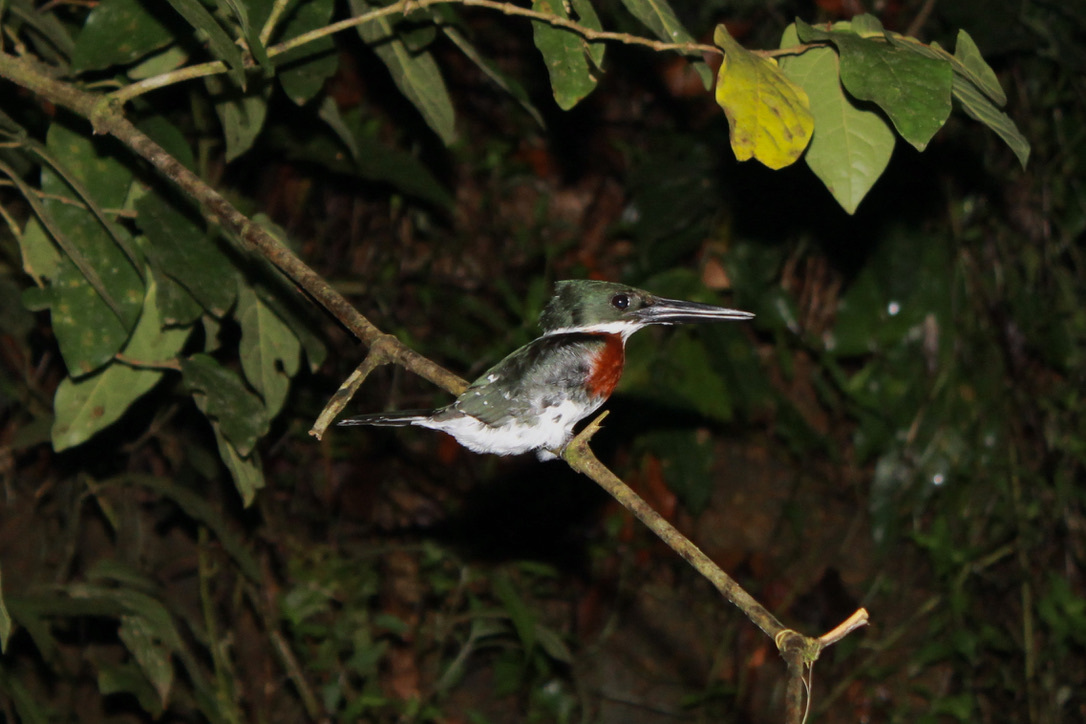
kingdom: Animalia
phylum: Chordata
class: Aves
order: Coraciiformes
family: Alcedinidae
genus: Chloroceryle
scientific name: Chloroceryle americana
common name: Green kingfisher
